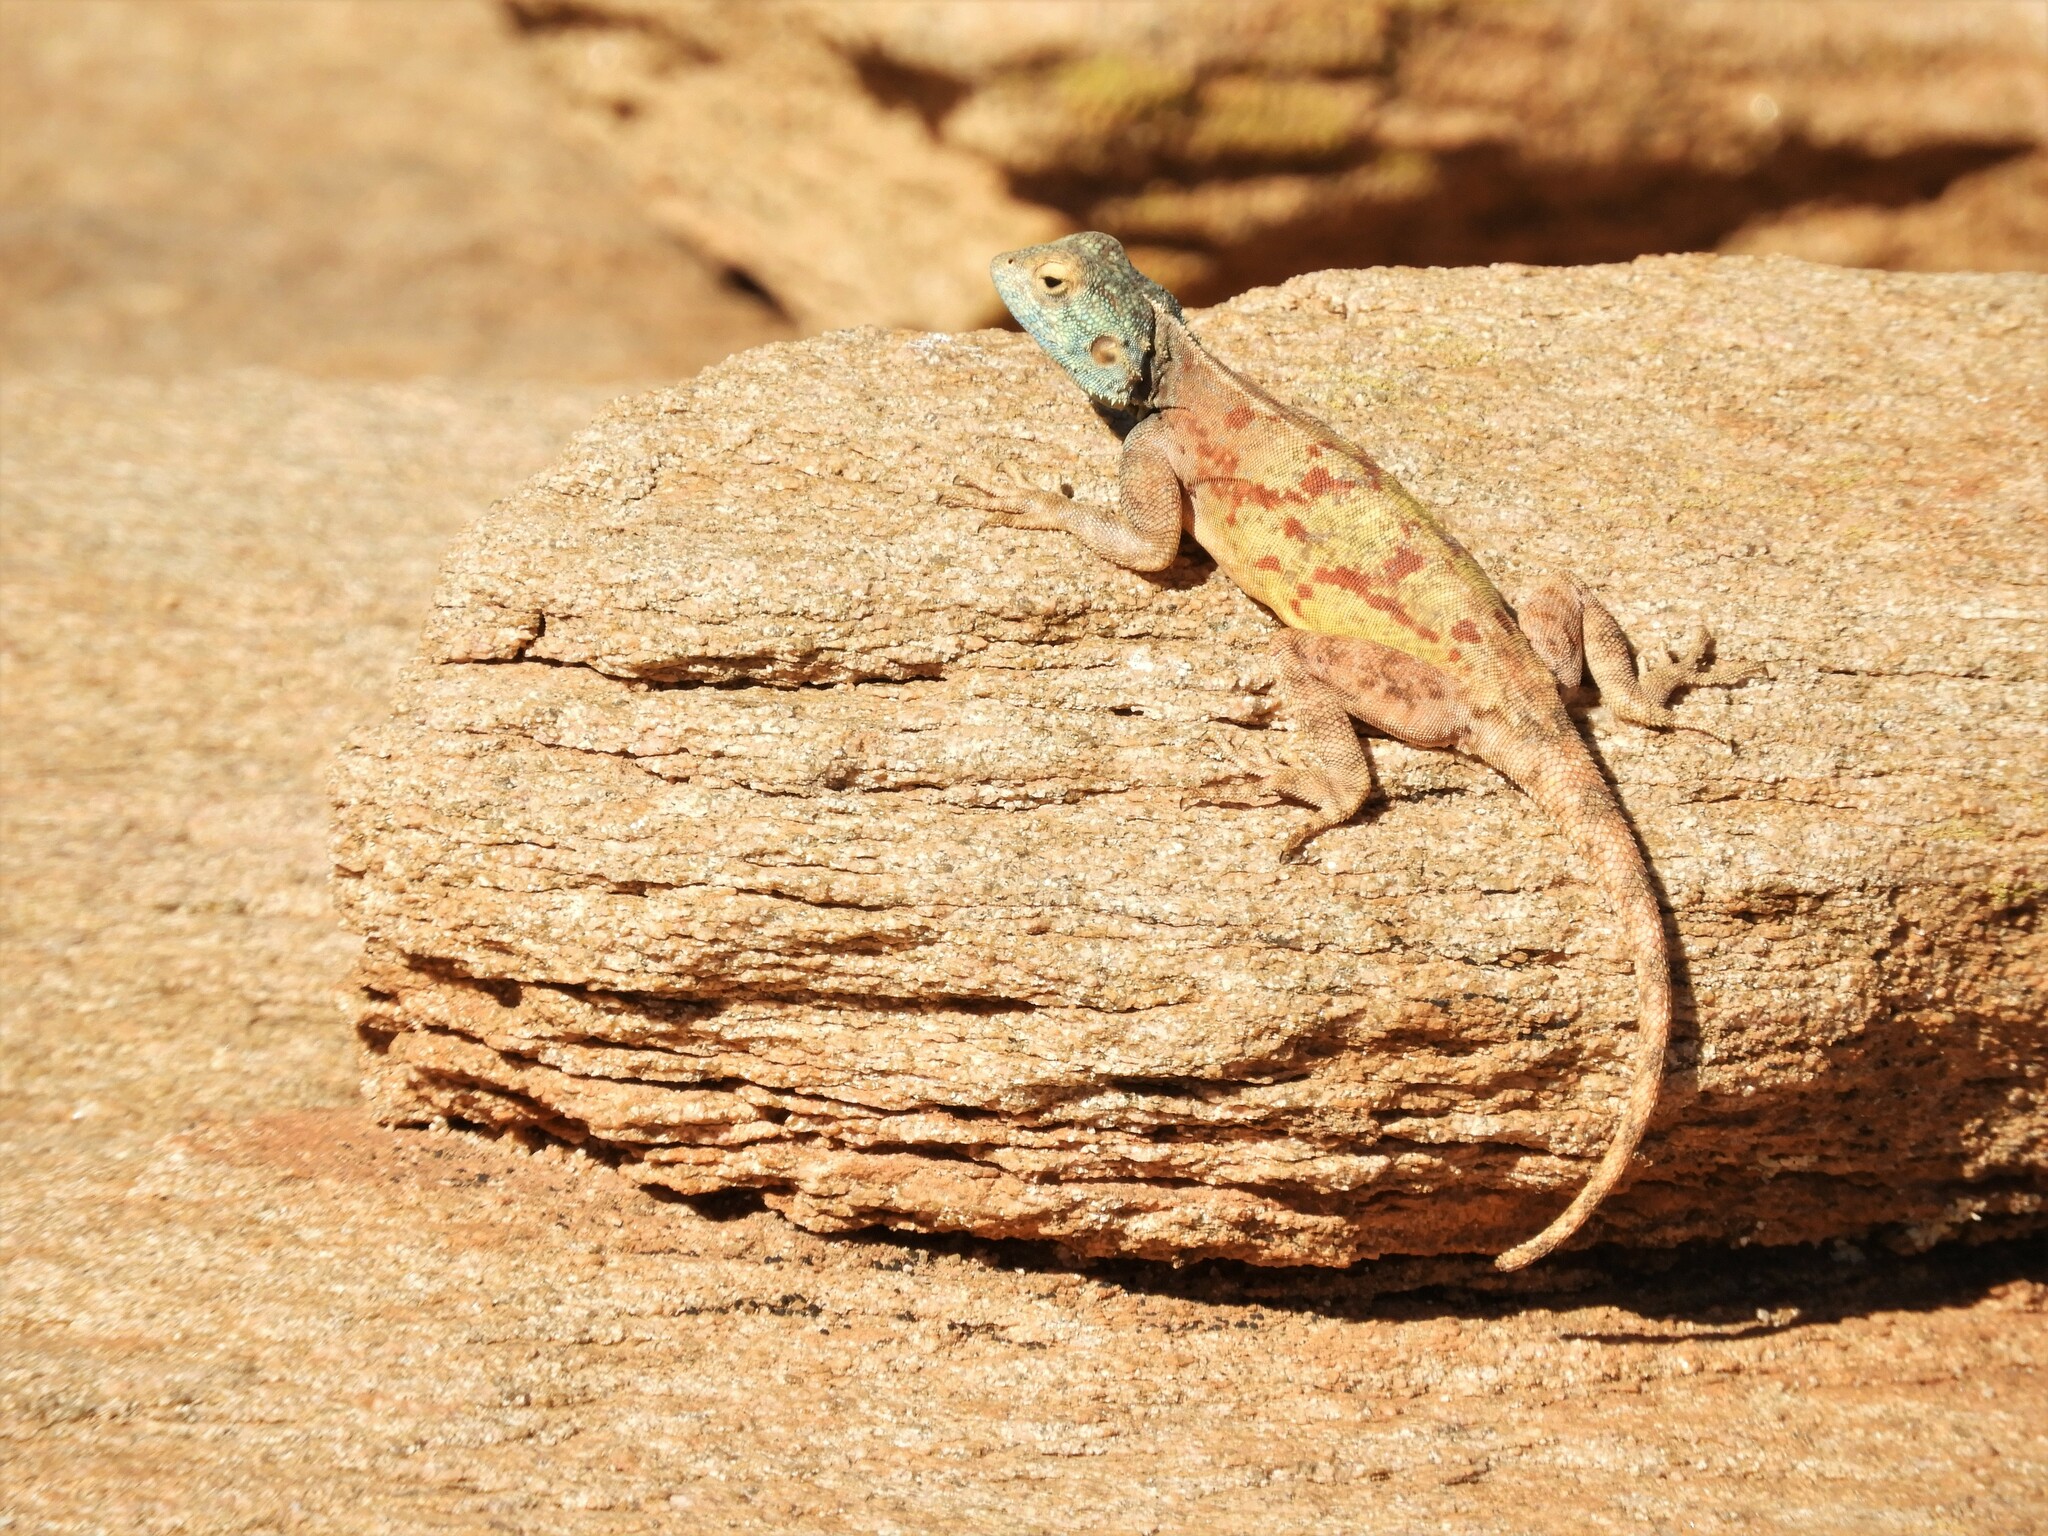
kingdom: Animalia
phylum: Chordata
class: Squamata
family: Agamidae
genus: Agama
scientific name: Agama atra
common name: Southern african rock agama
